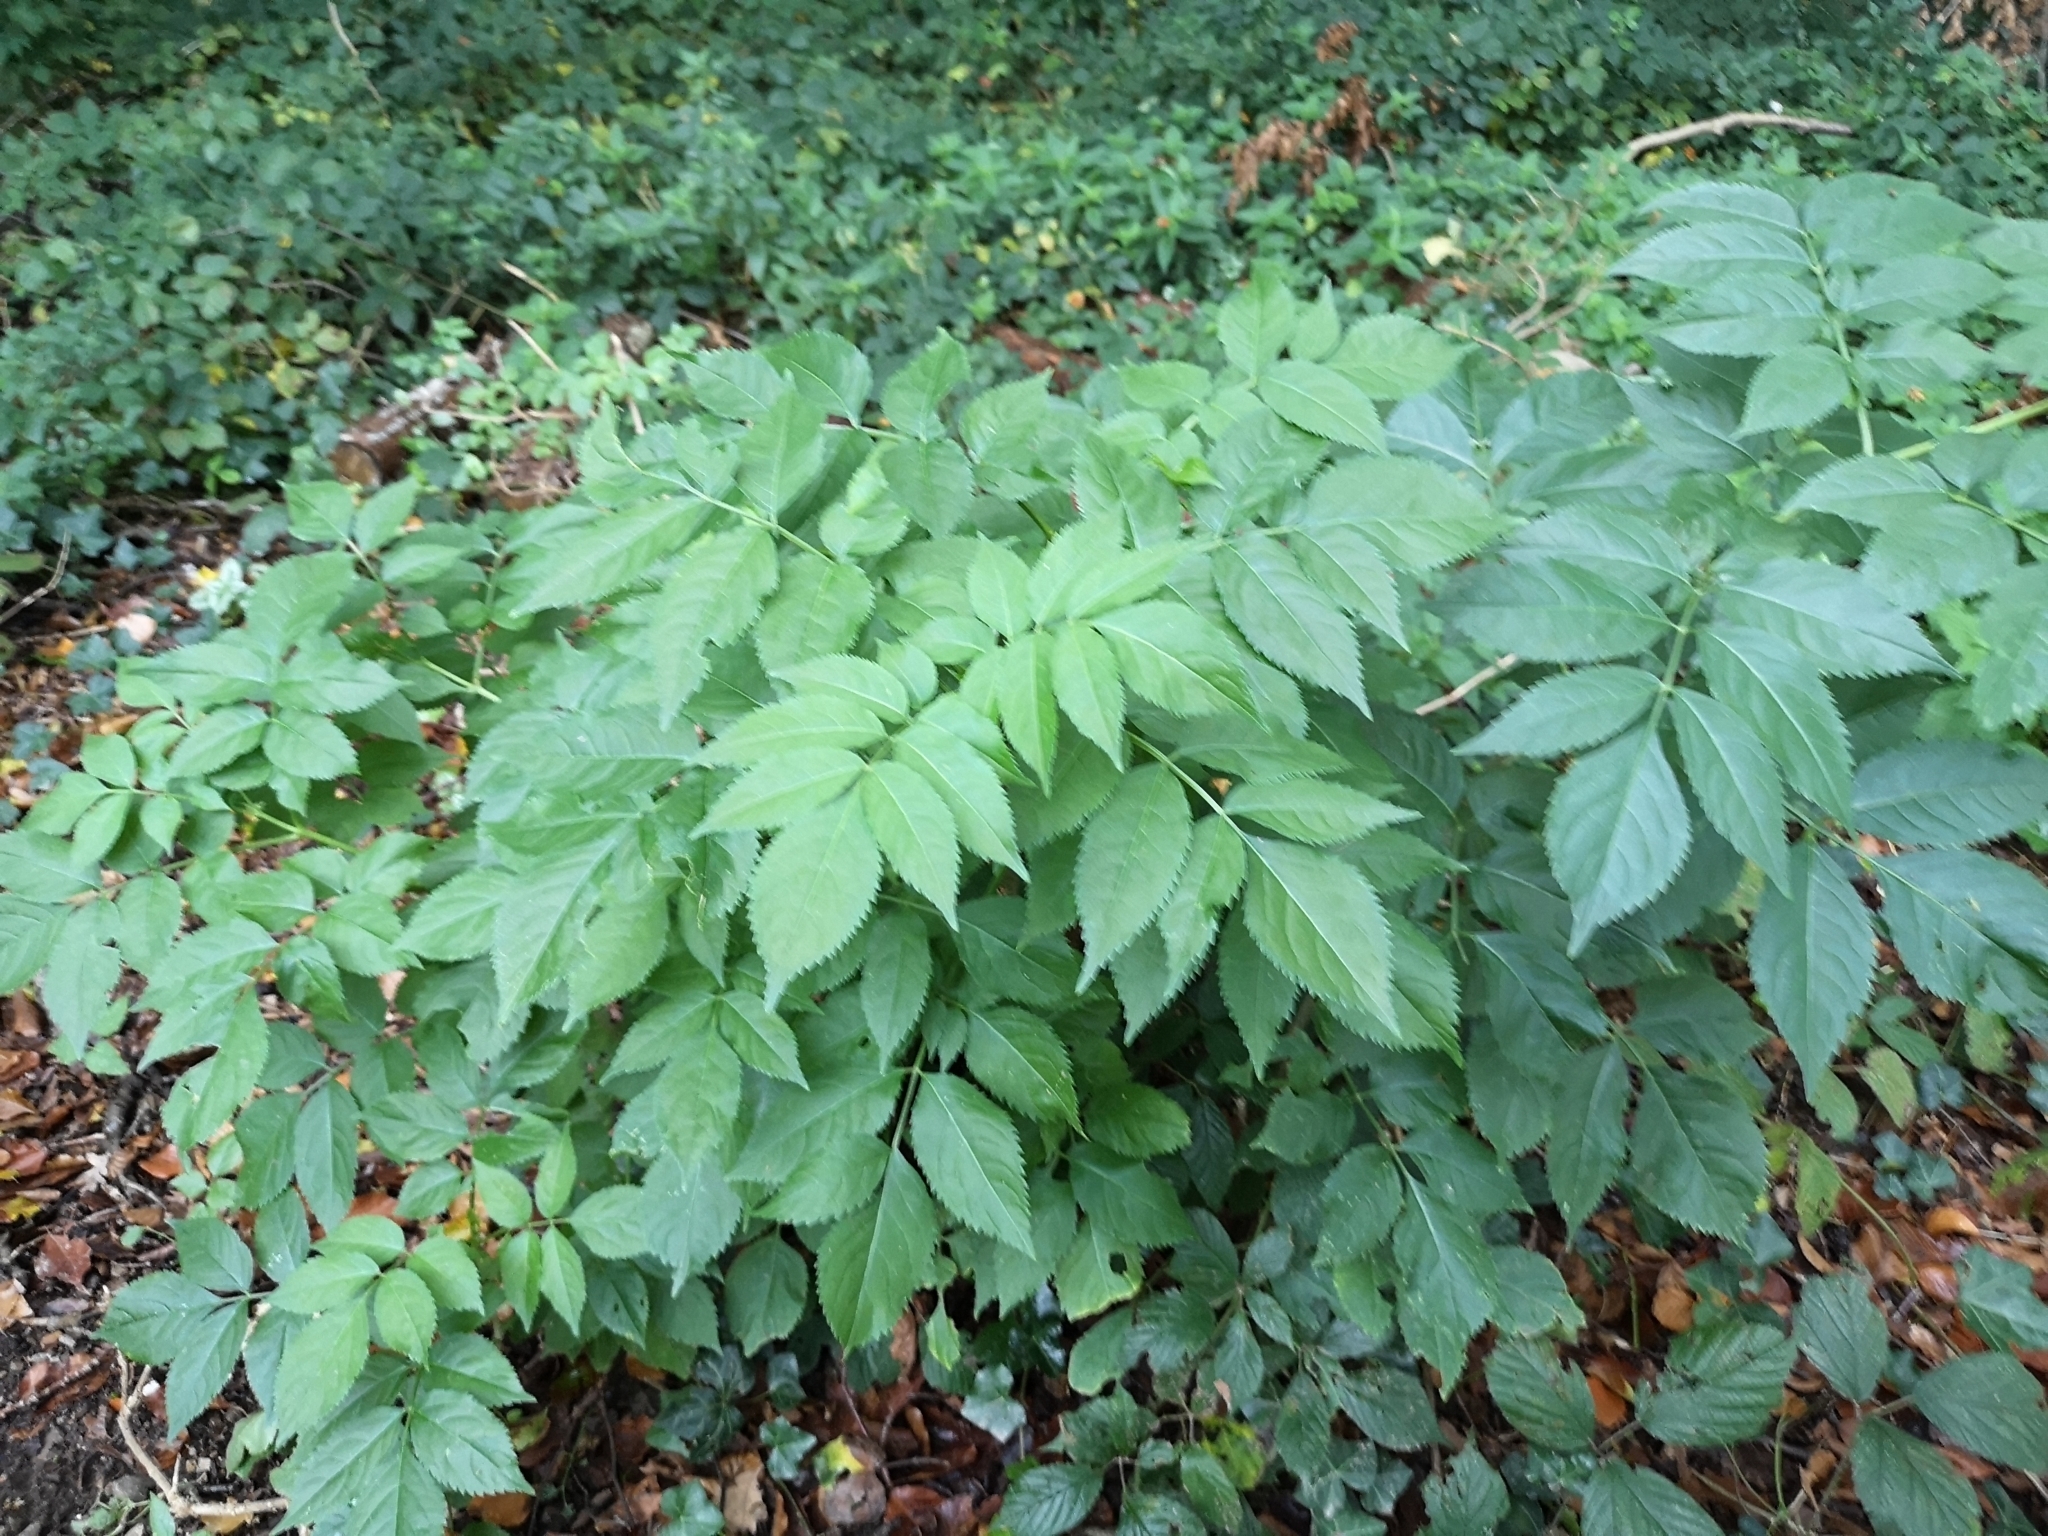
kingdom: Plantae
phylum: Tracheophyta
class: Magnoliopsida
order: Dipsacales
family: Viburnaceae
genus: Sambucus
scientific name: Sambucus nigra
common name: Elder
